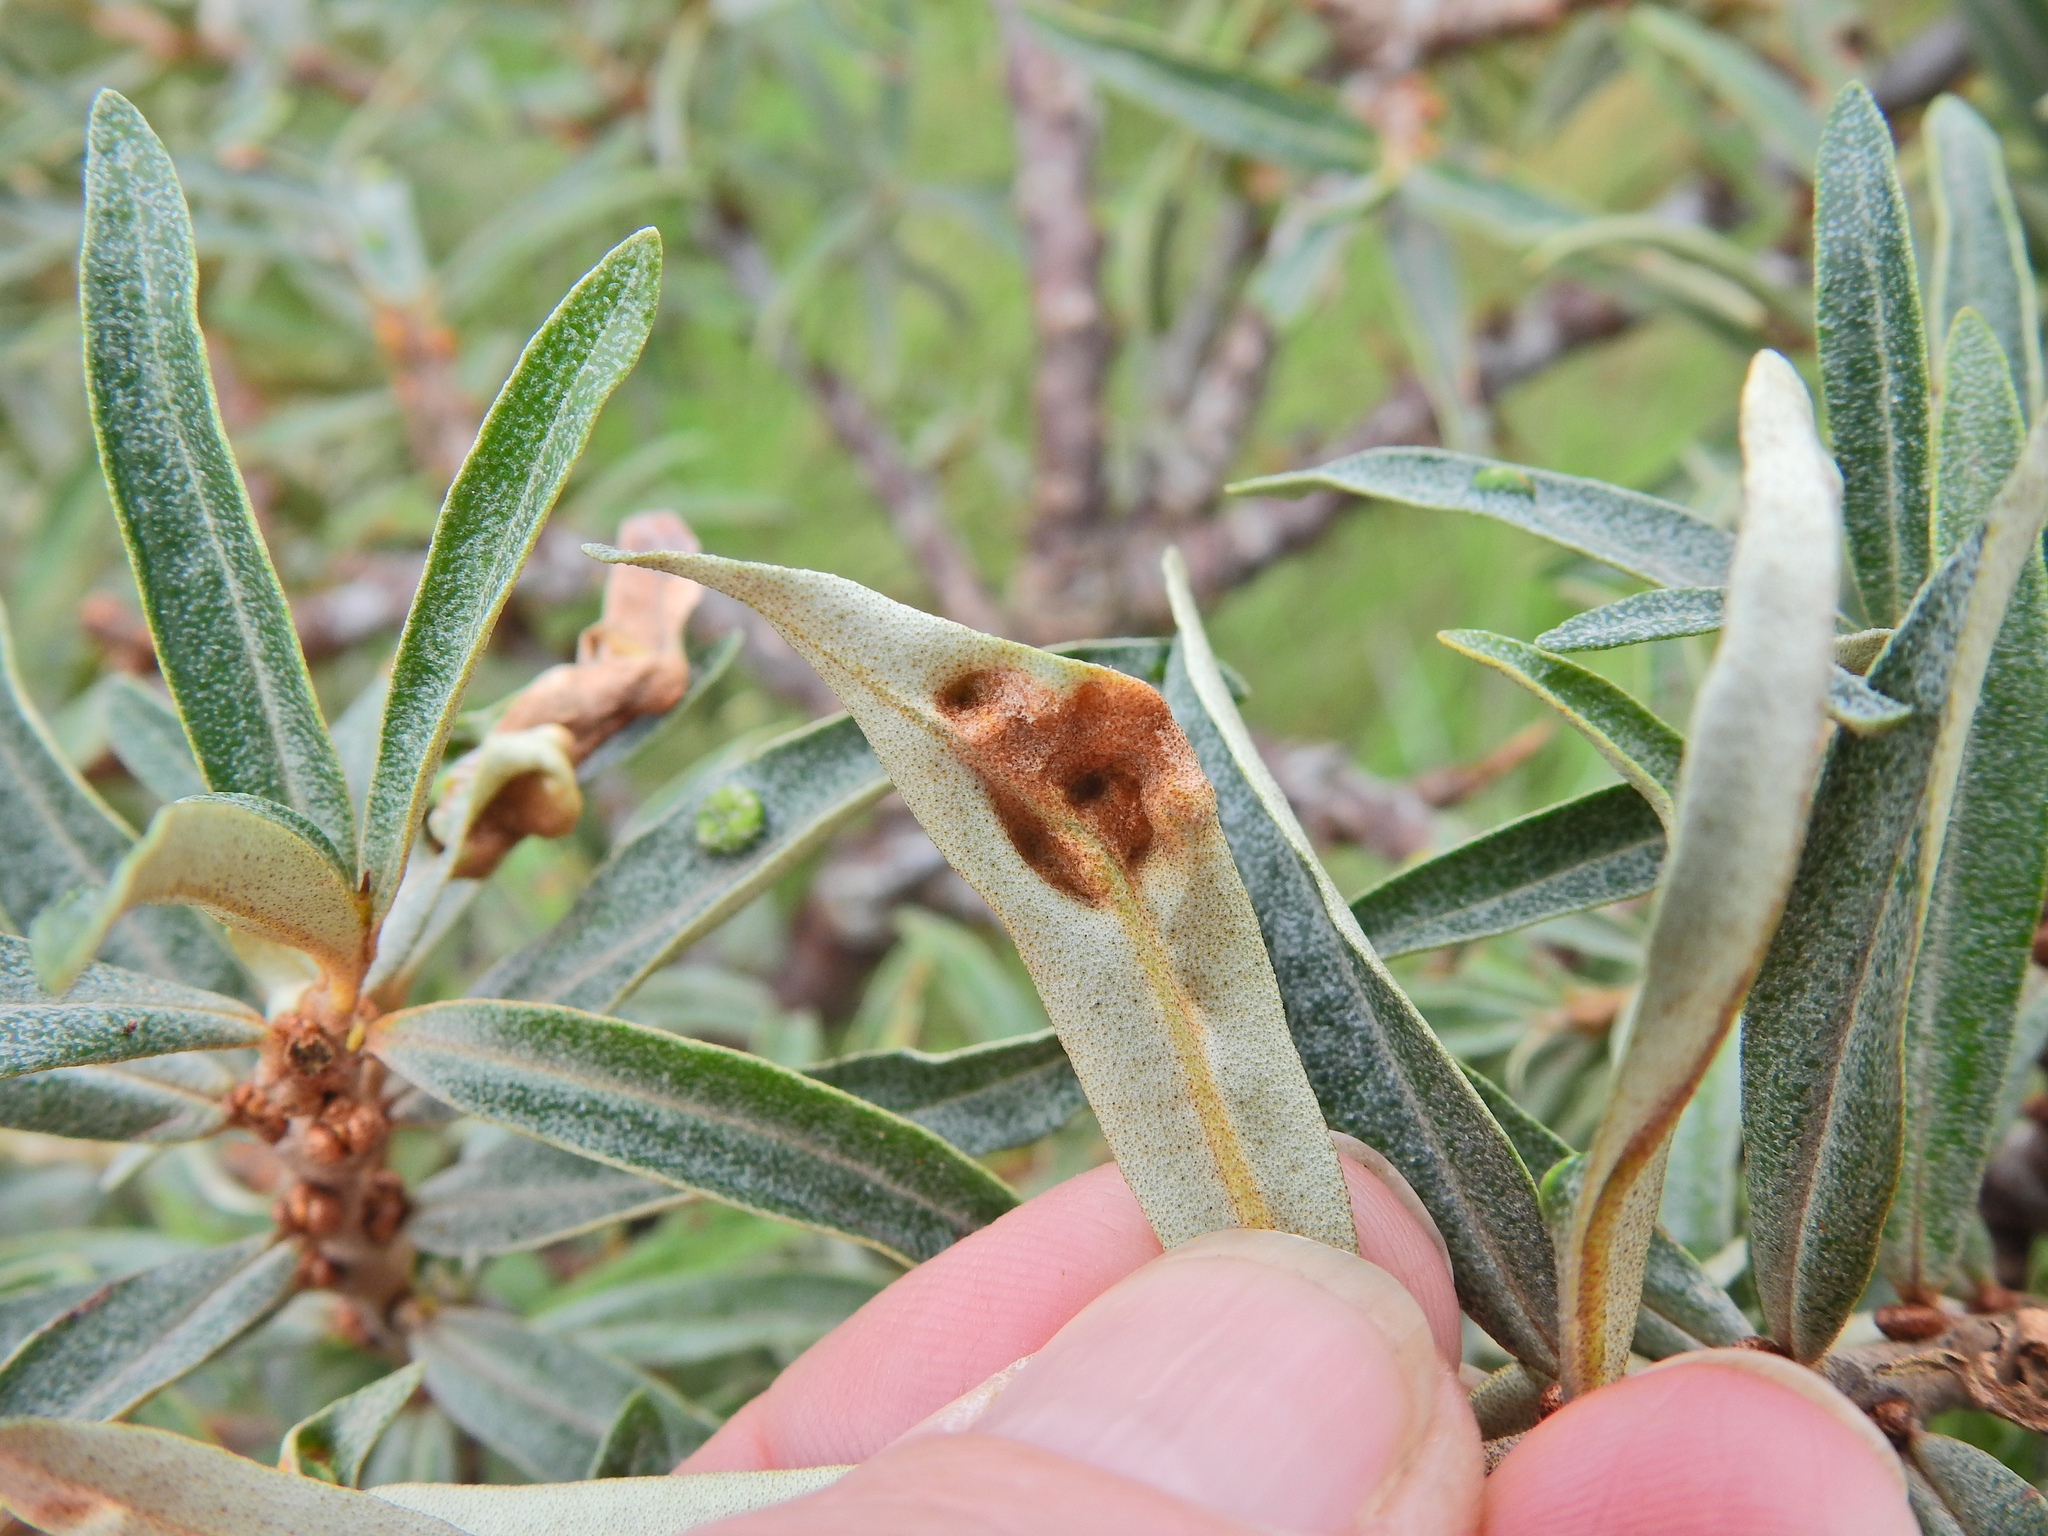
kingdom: Animalia
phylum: Arthropoda
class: Arachnida
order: Trombidiformes
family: Eriophyidae
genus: Aceria
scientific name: Aceria hippophaena
